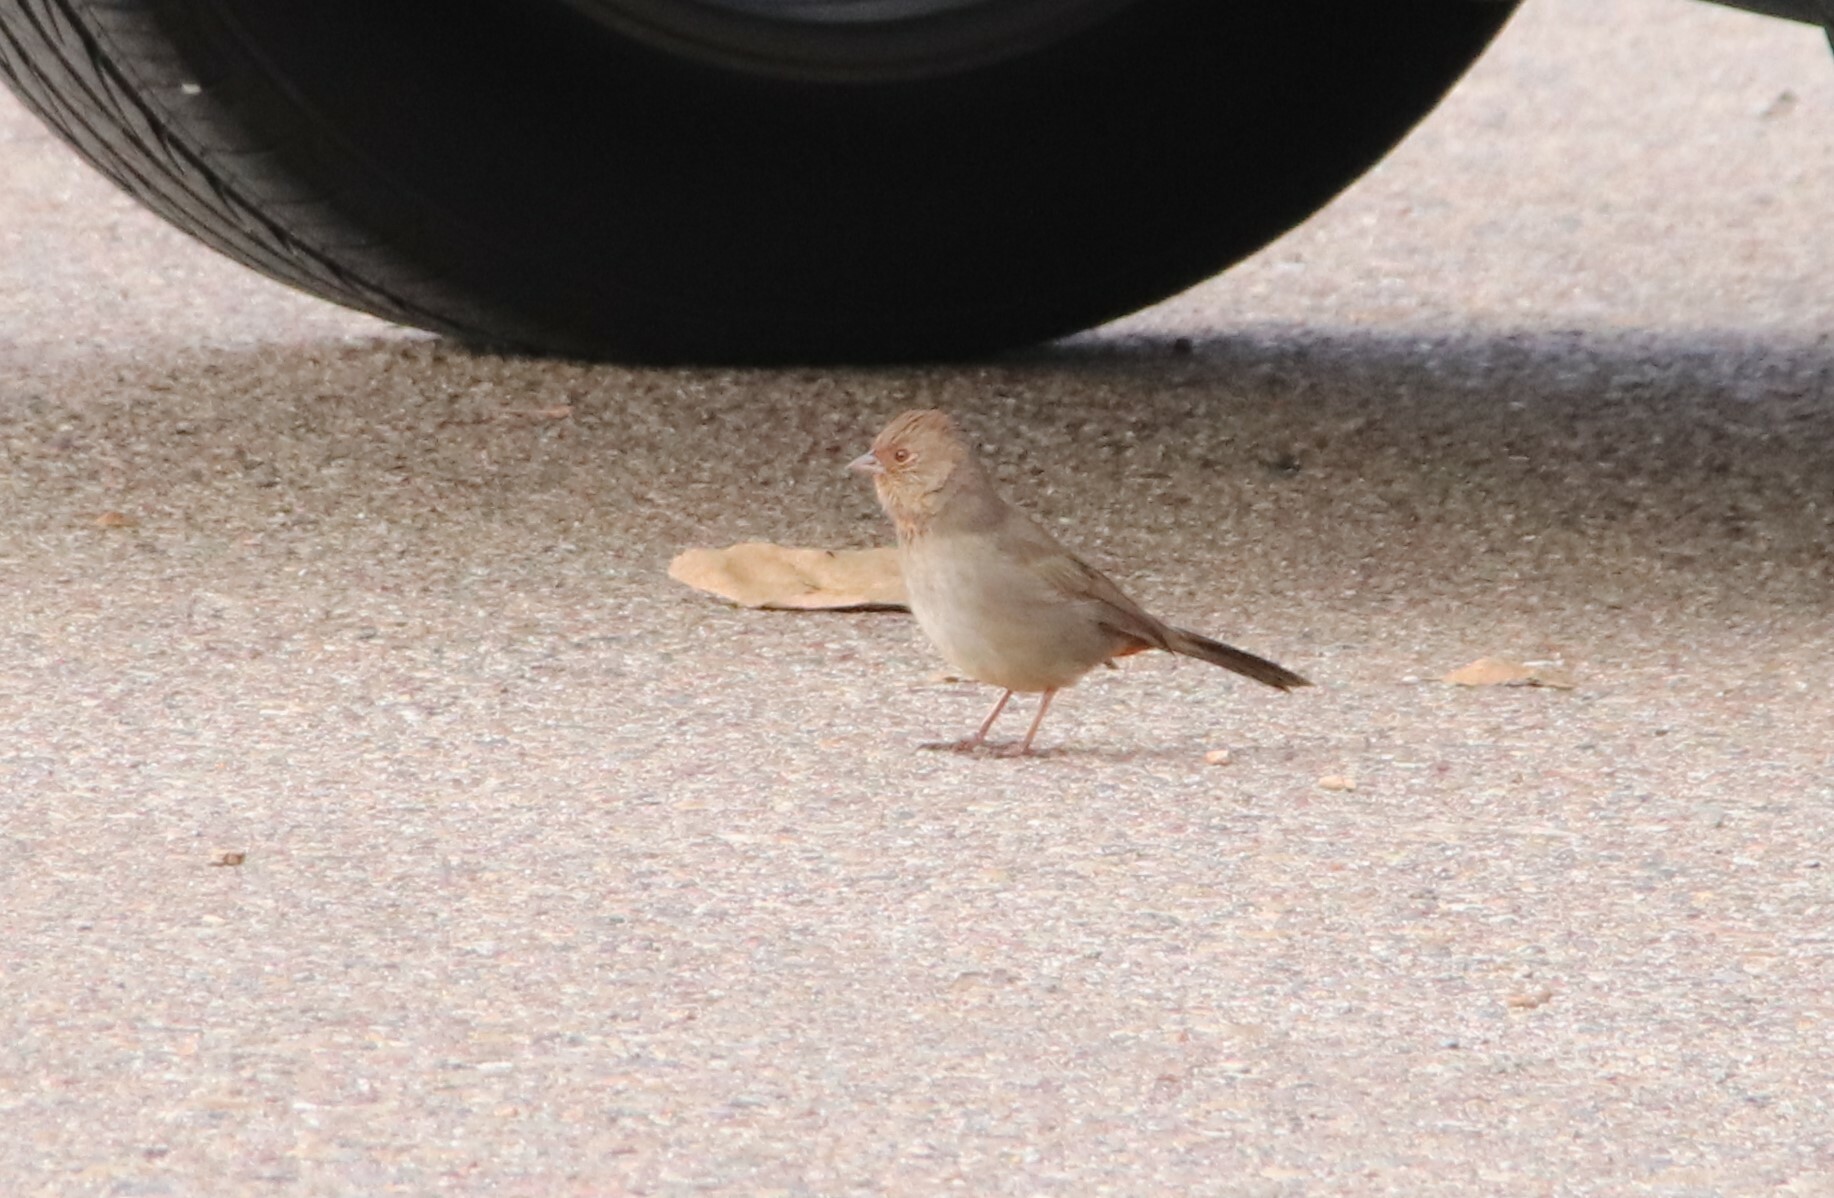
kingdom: Animalia
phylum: Chordata
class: Aves
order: Passeriformes
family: Passerellidae
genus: Melozone
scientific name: Melozone crissalis
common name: California towhee
